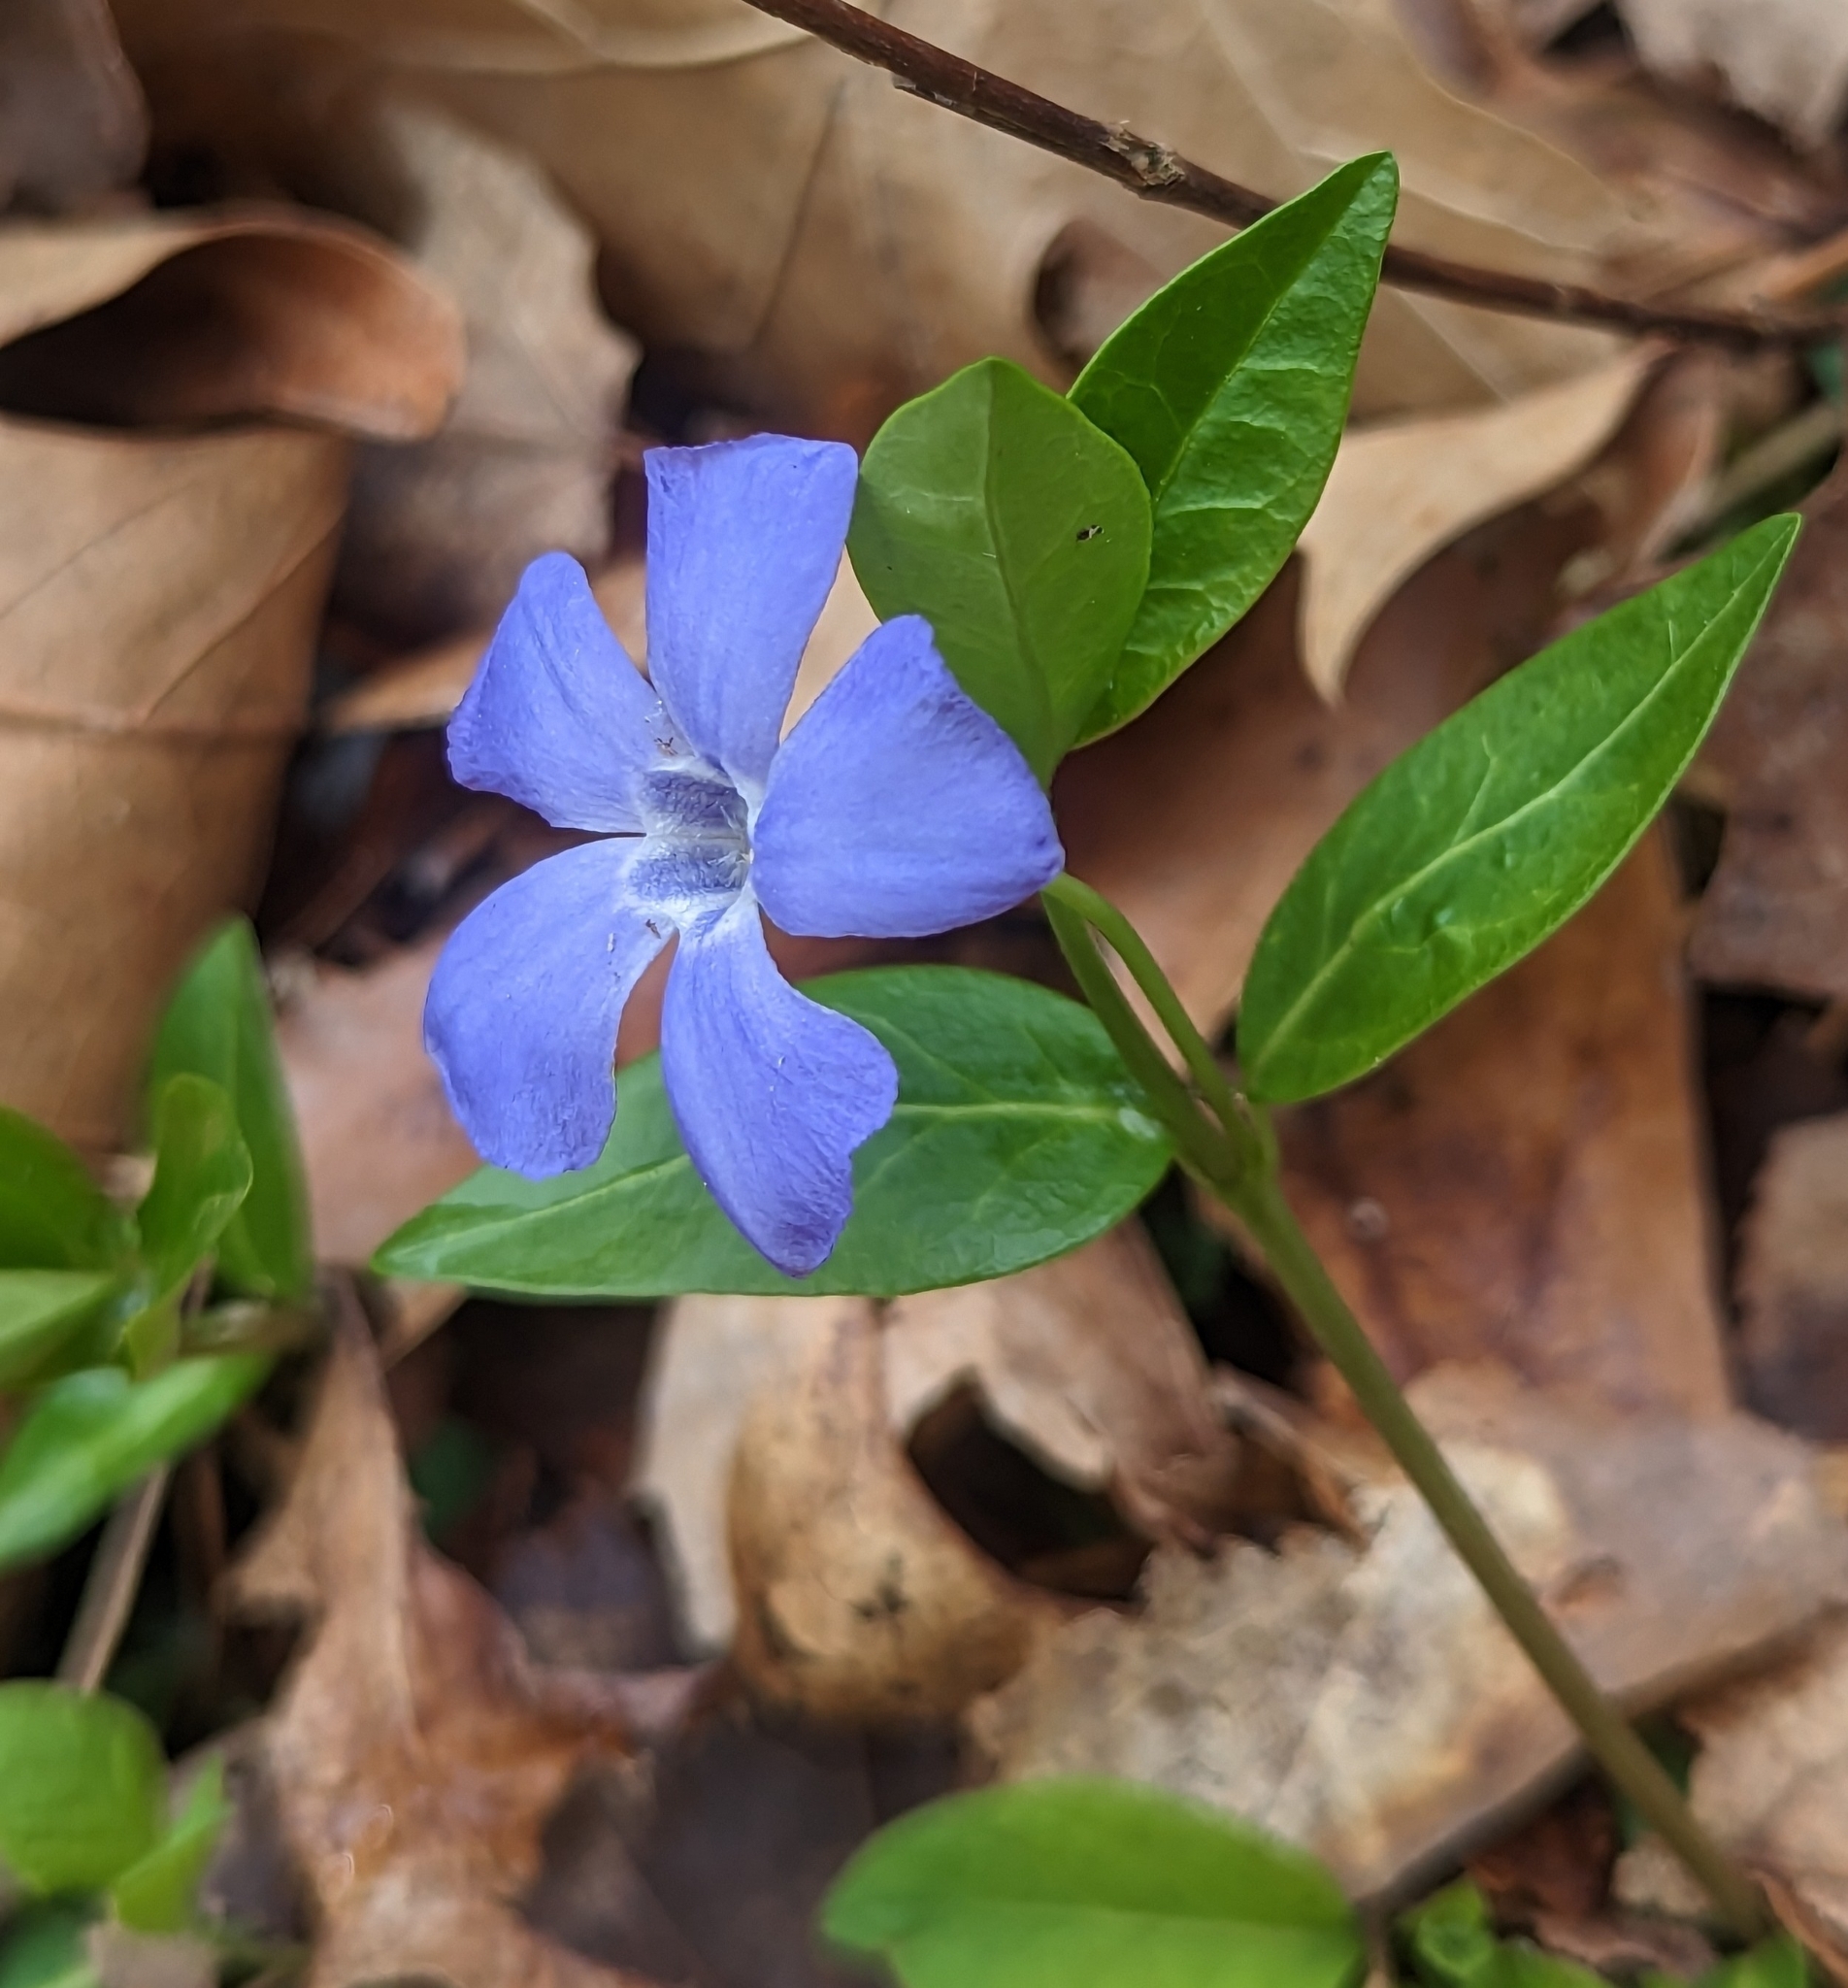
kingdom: Plantae
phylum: Tracheophyta
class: Magnoliopsida
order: Gentianales
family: Apocynaceae
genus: Vinca
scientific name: Vinca minor
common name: Lesser periwinkle
